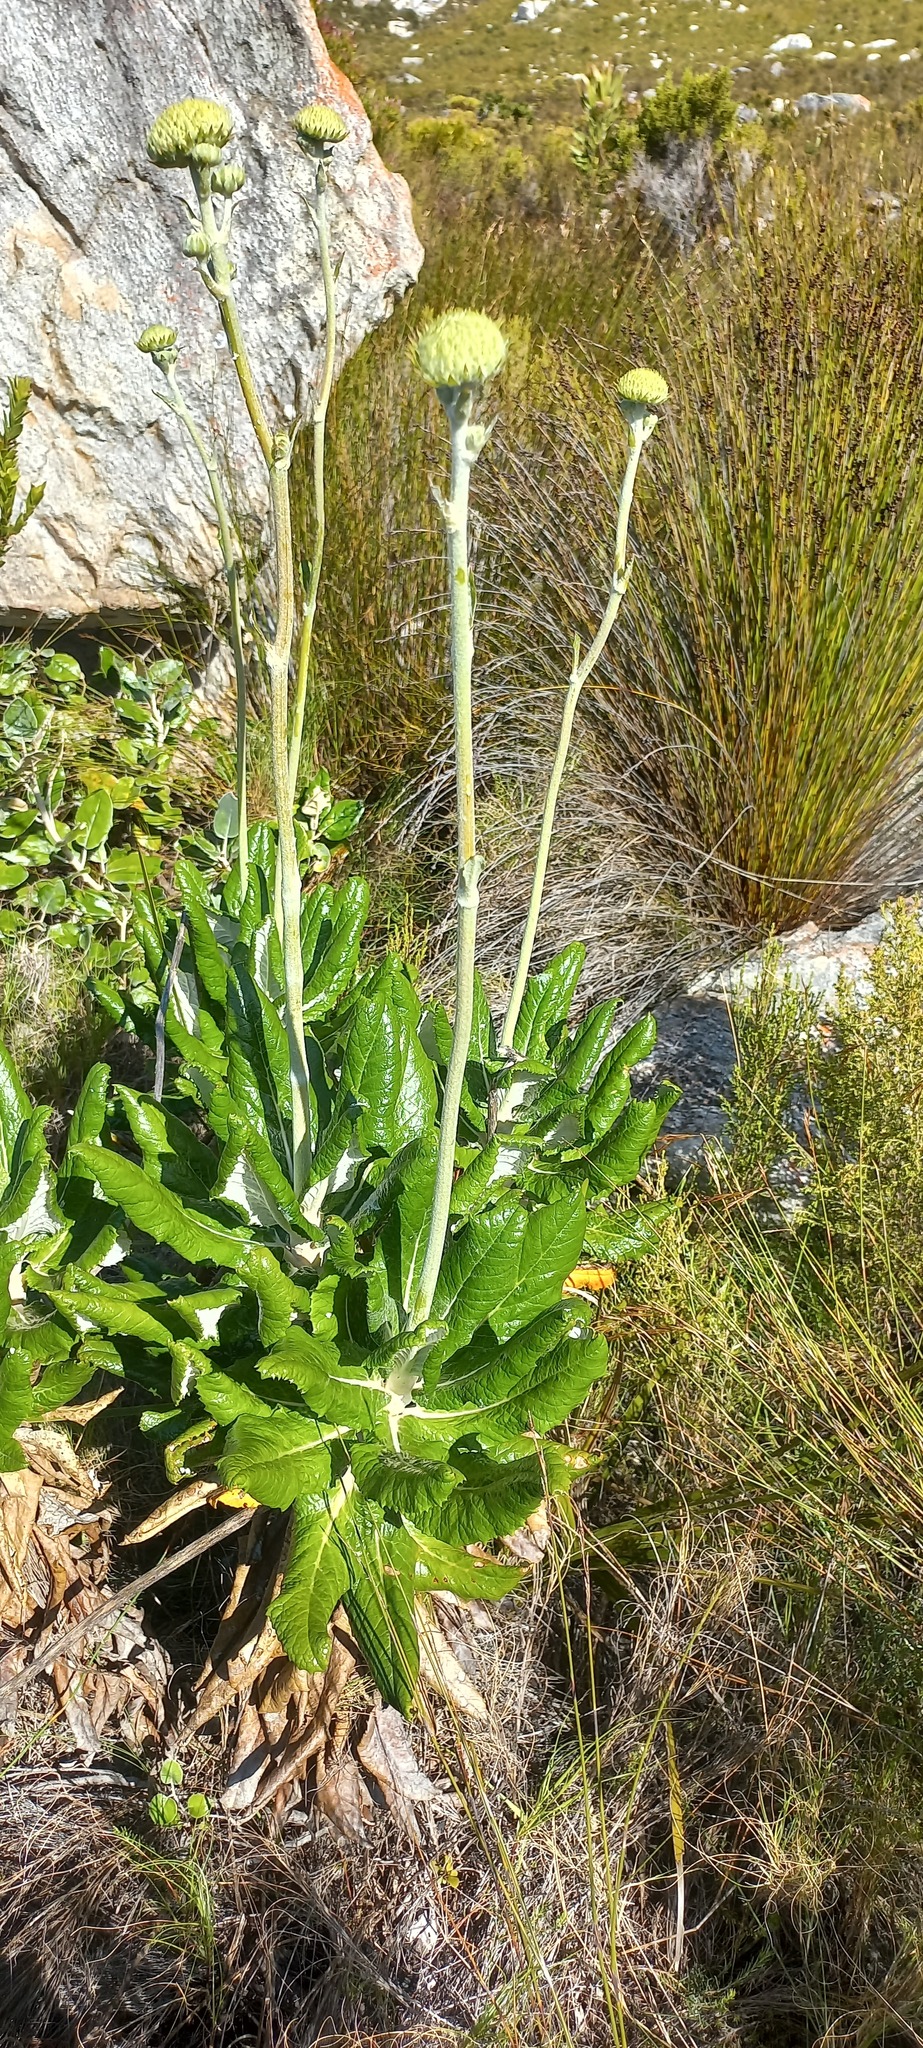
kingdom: Plantae
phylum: Tracheophyta
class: Magnoliopsida
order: Apiales
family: Apiaceae
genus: Hermas
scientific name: Hermas villosa
